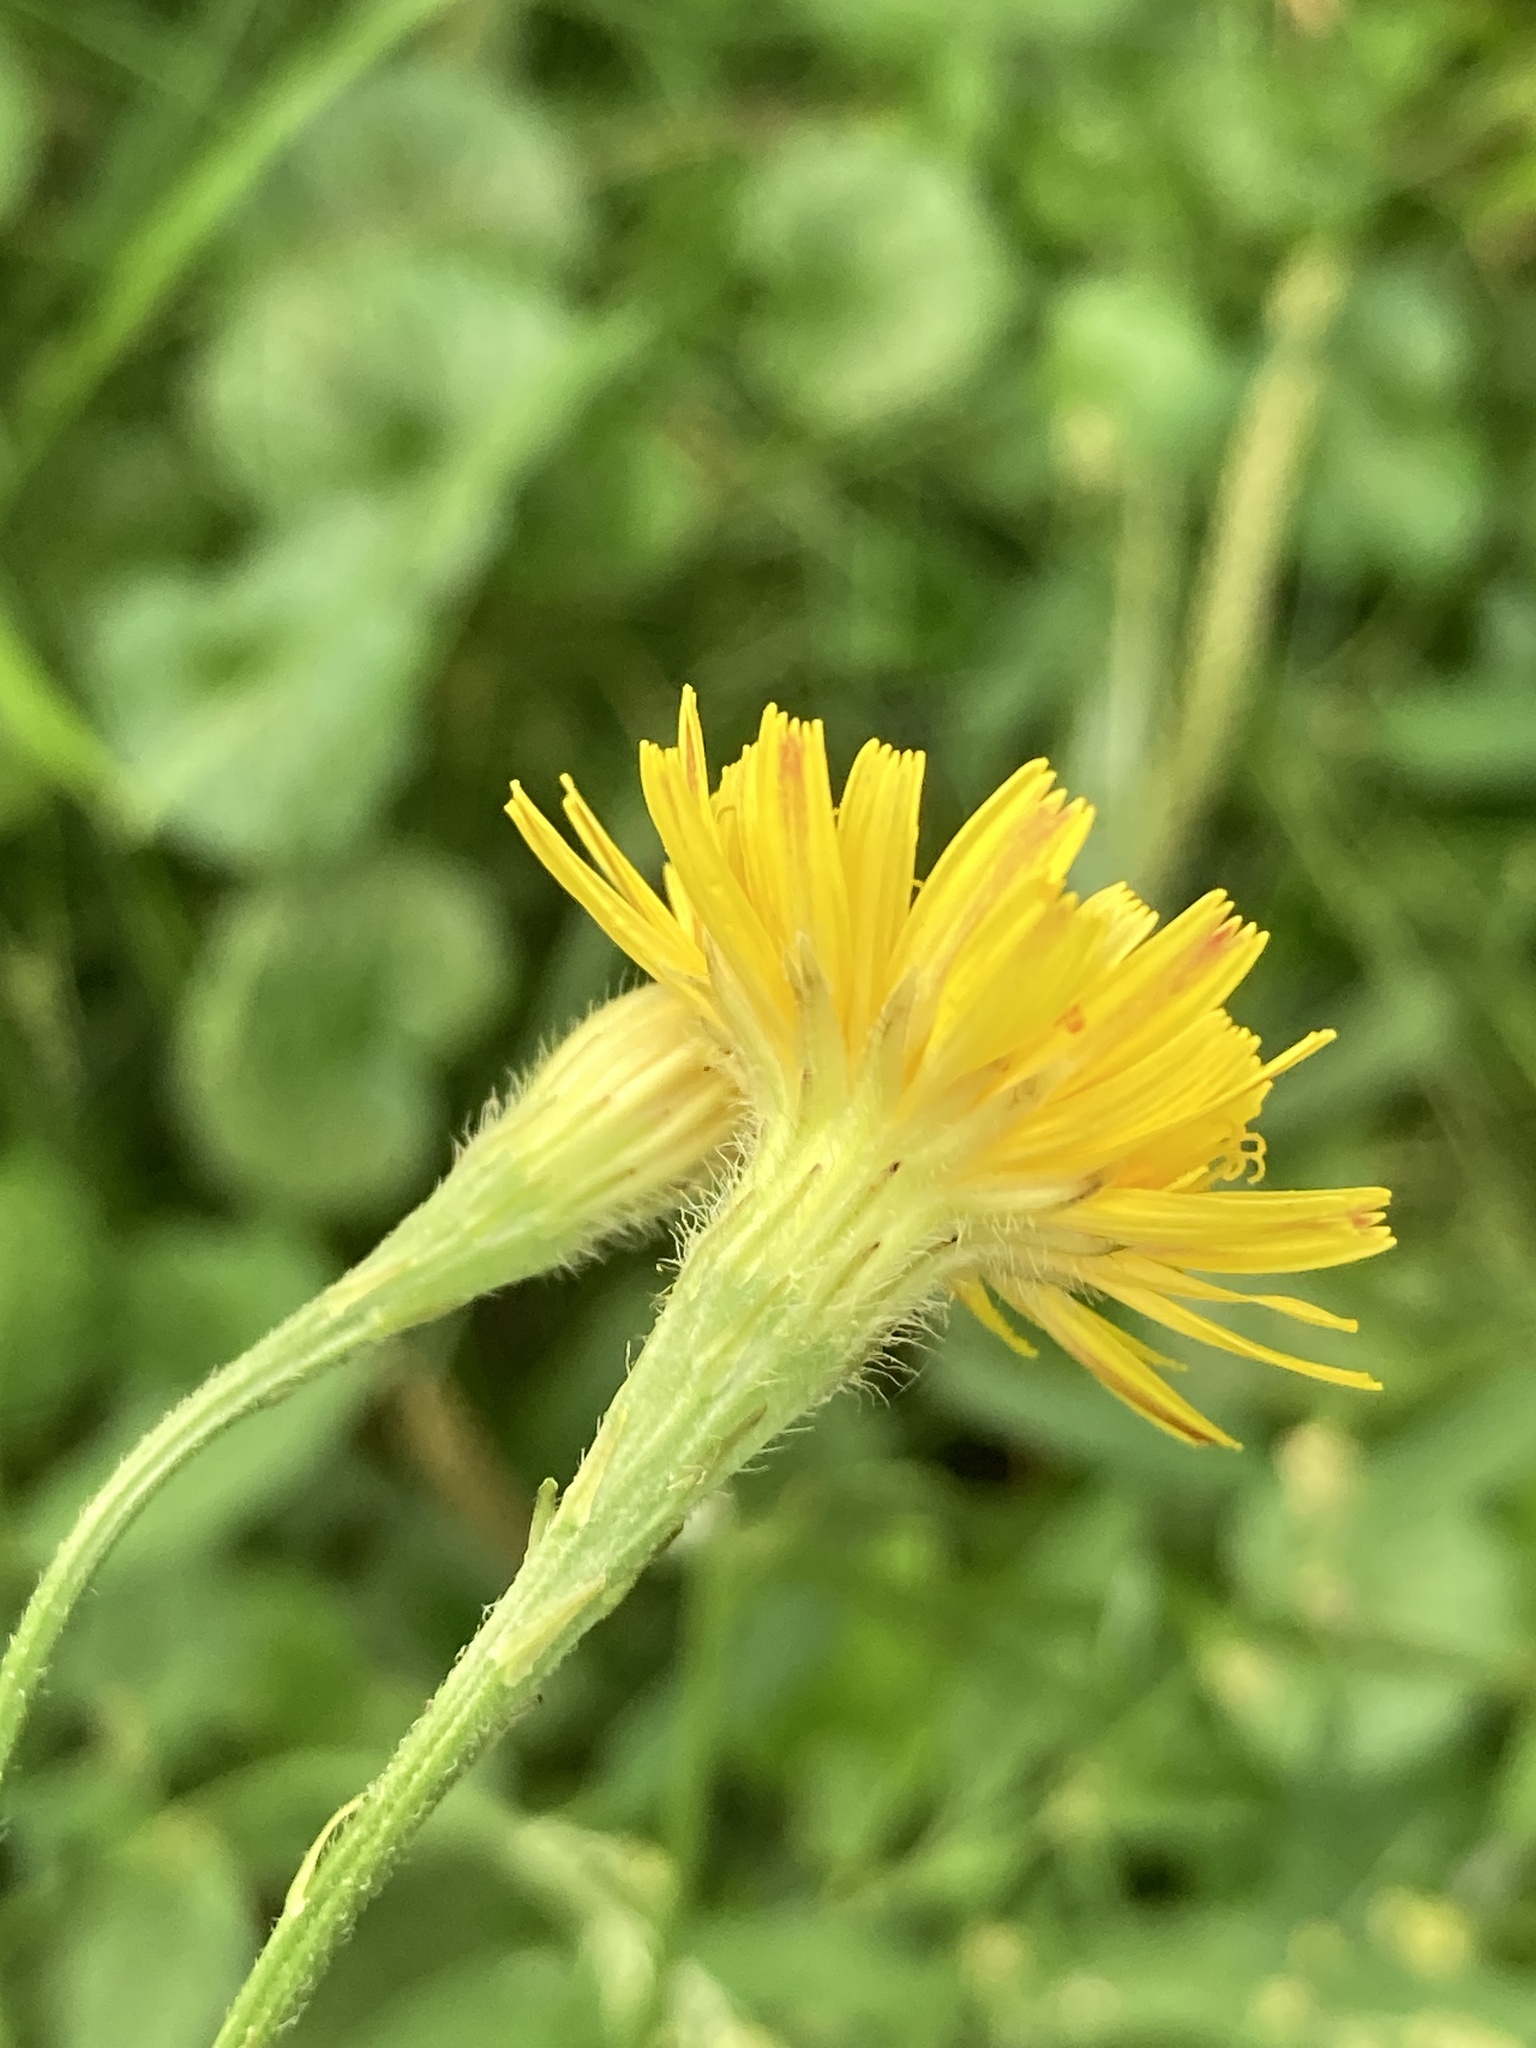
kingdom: Plantae
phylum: Tracheophyta
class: Magnoliopsida
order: Asterales
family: Asteraceae
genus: Scorzoneroides
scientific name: Scorzoneroides autumnalis
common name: Autumn hawkbit
